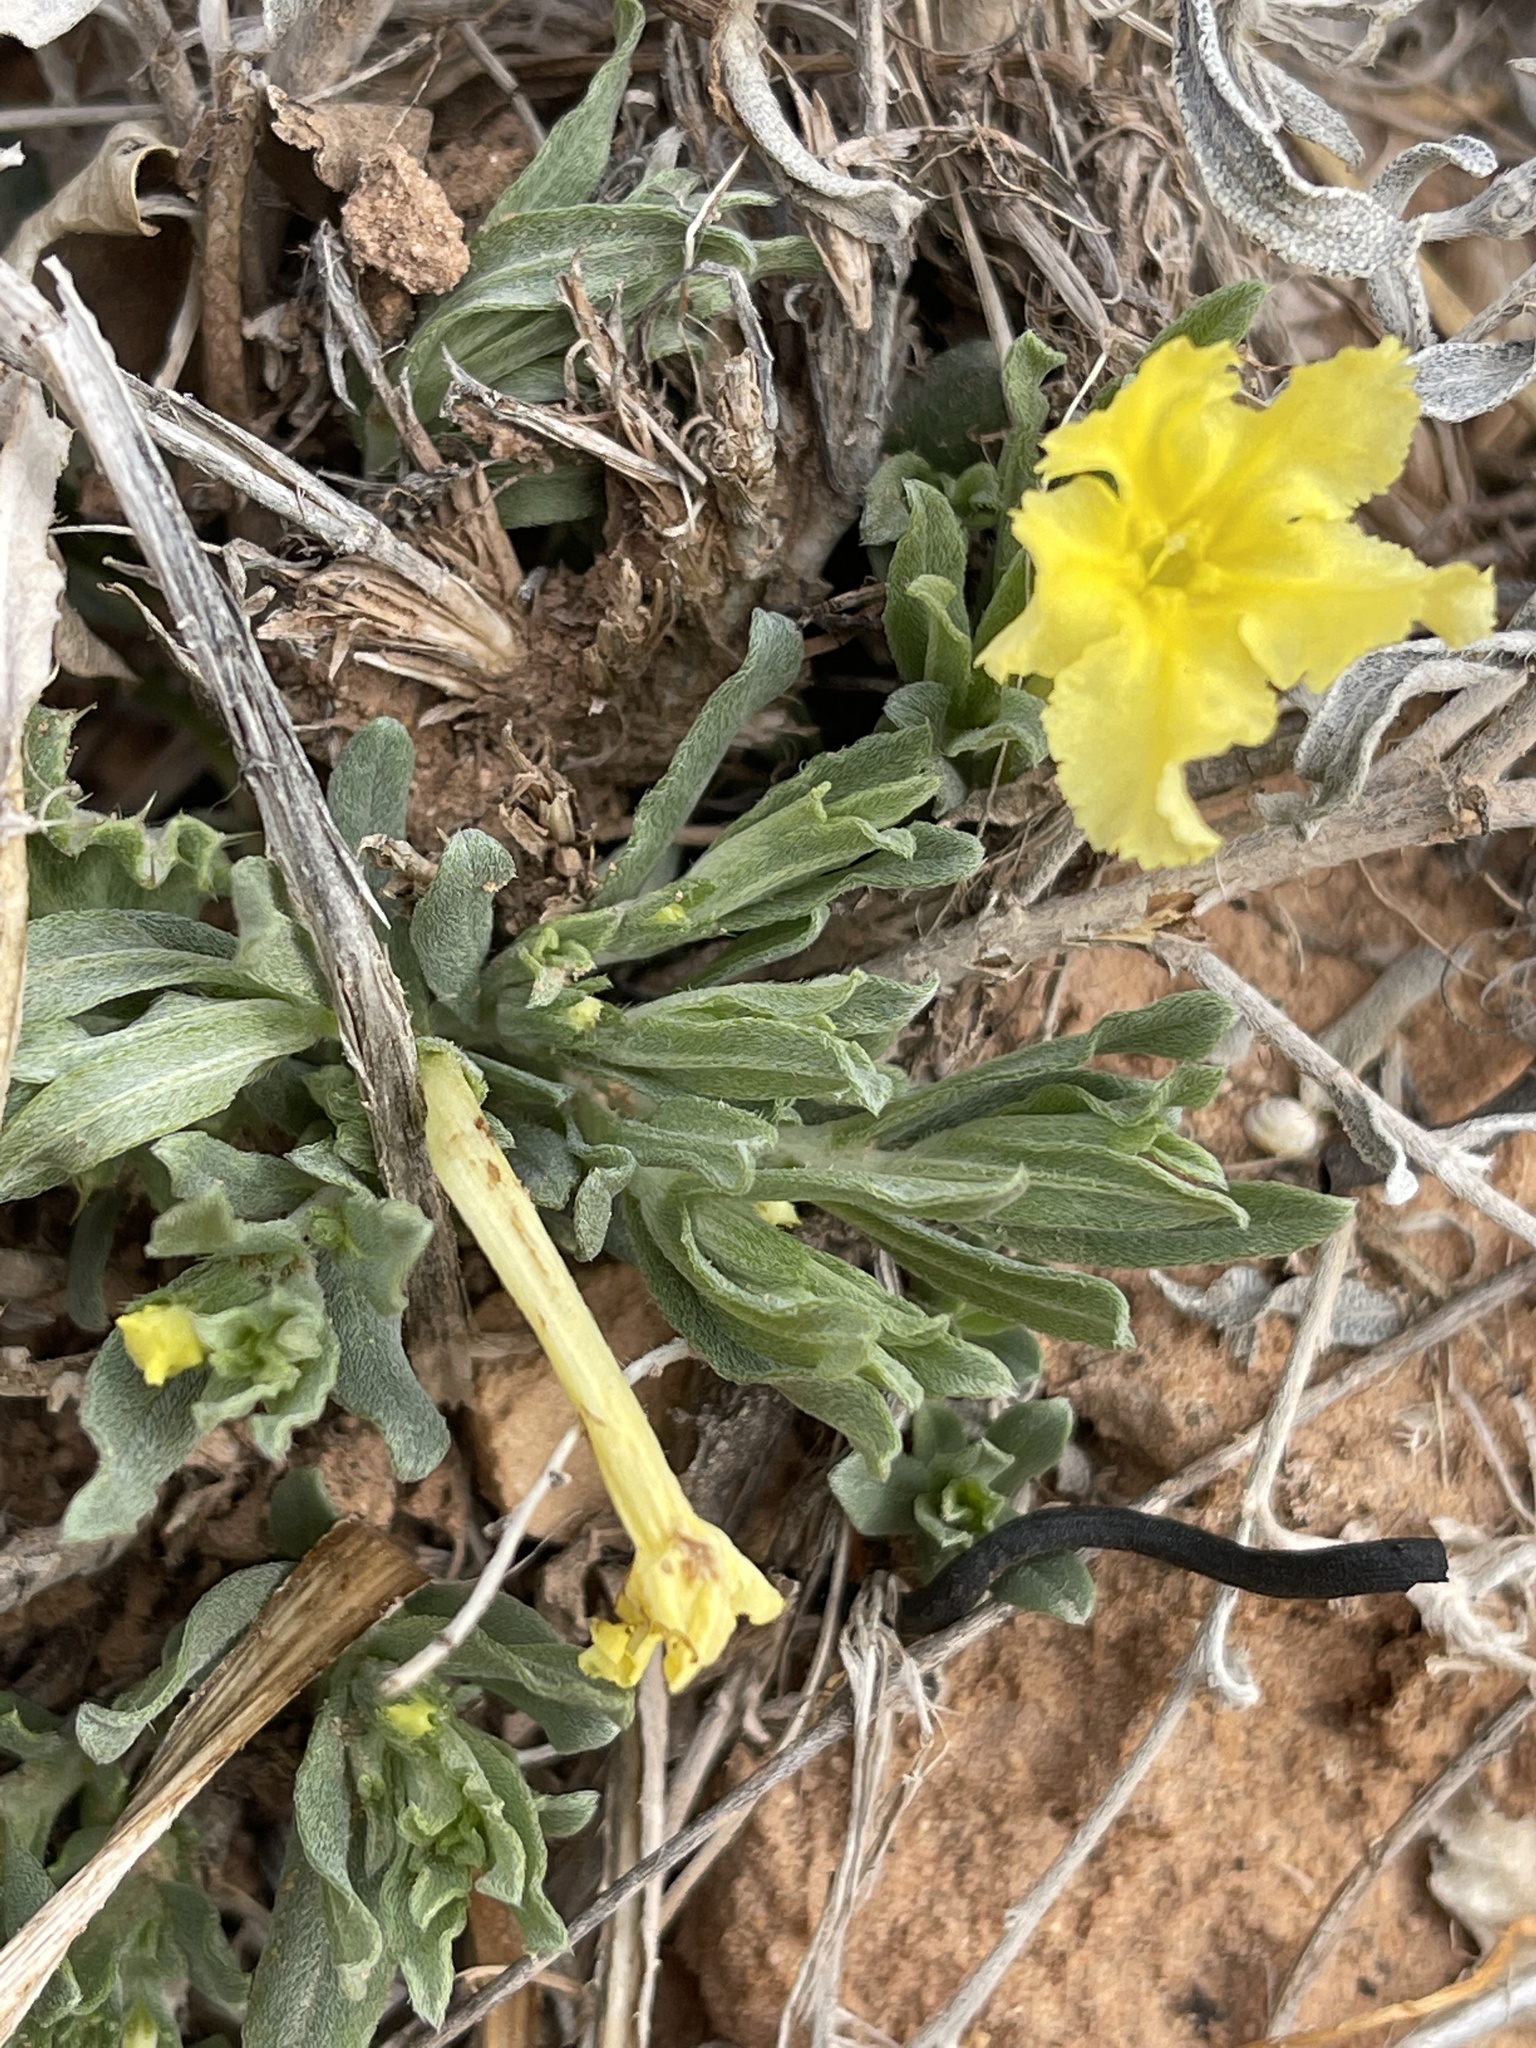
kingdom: Plantae
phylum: Tracheophyta
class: Magnoliopsida
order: Boraginales
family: Boraginaceae
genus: Lithospermum
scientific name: Lithospermum incisum
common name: Fringed gromwell
